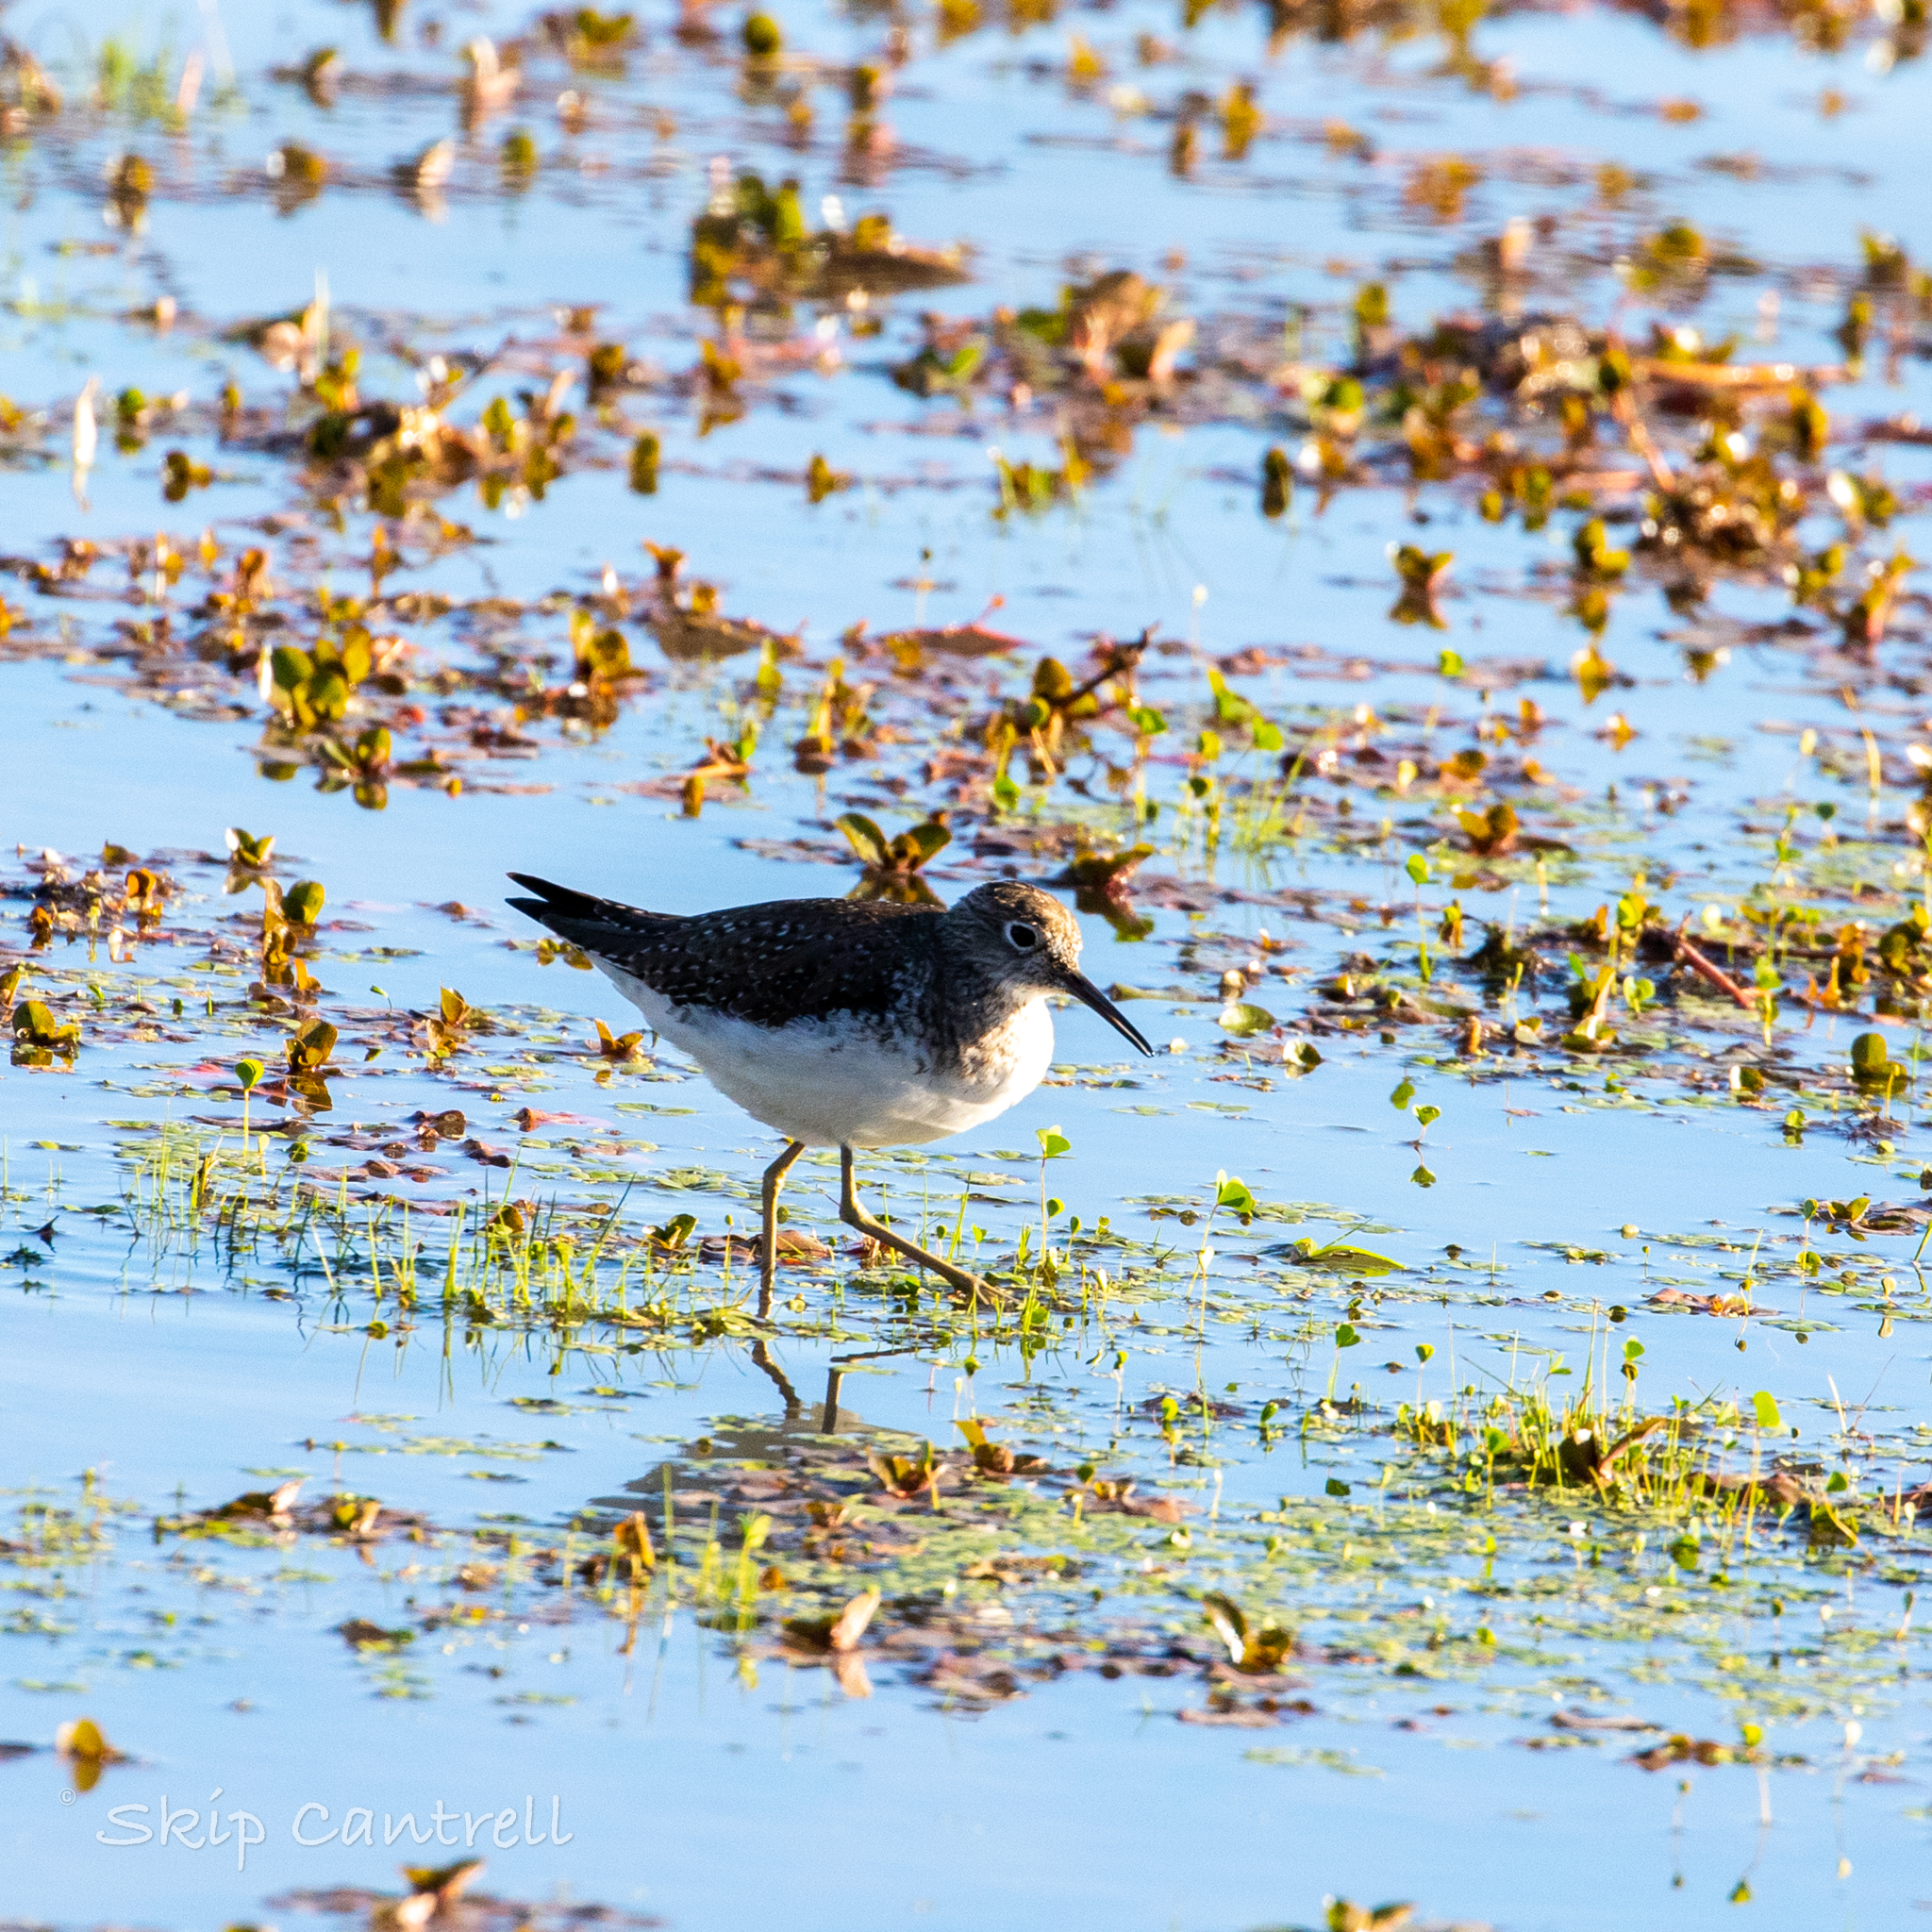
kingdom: Animalia
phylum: Chordata
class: Aves
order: Charadriiformes
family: Scolopacidae
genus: Tringa
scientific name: Tringa solitaria
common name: Solitary sandpiper
